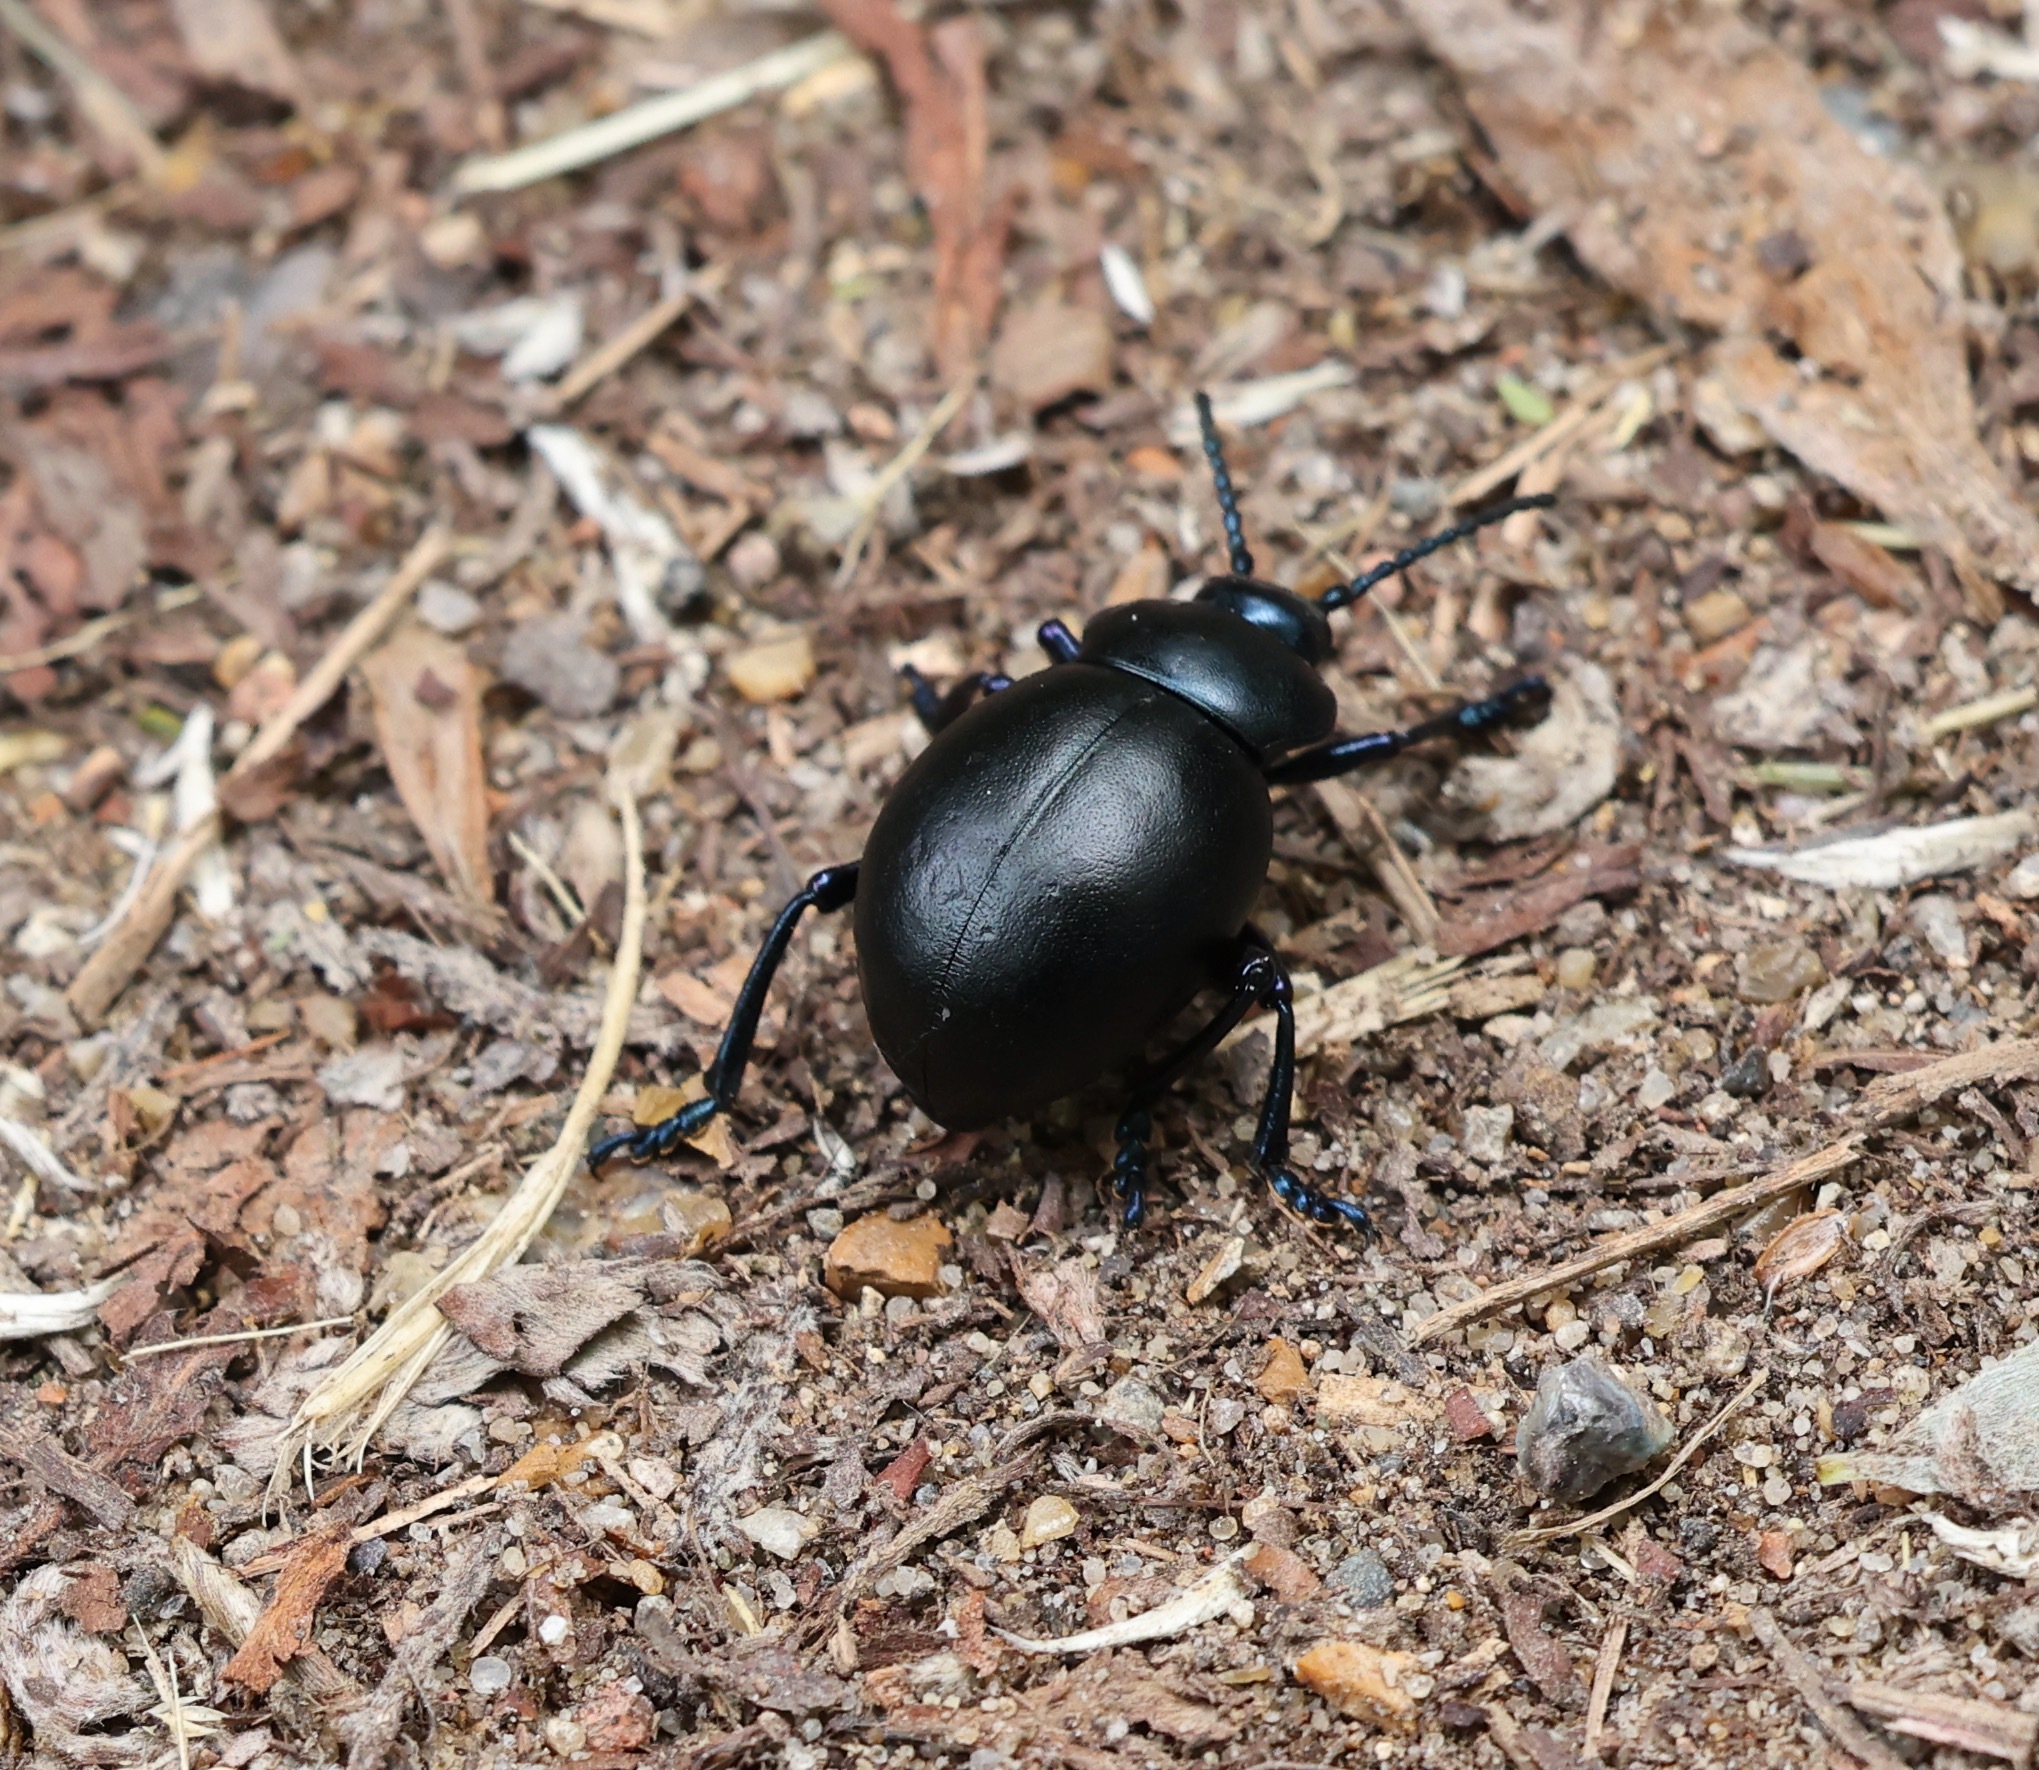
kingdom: Animalia
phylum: Arthropoda
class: Insecta
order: Coleoptera
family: Chrysomelidae
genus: Timarcha
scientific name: Timarcha tenebricosa
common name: Bloody-nosed beetle
